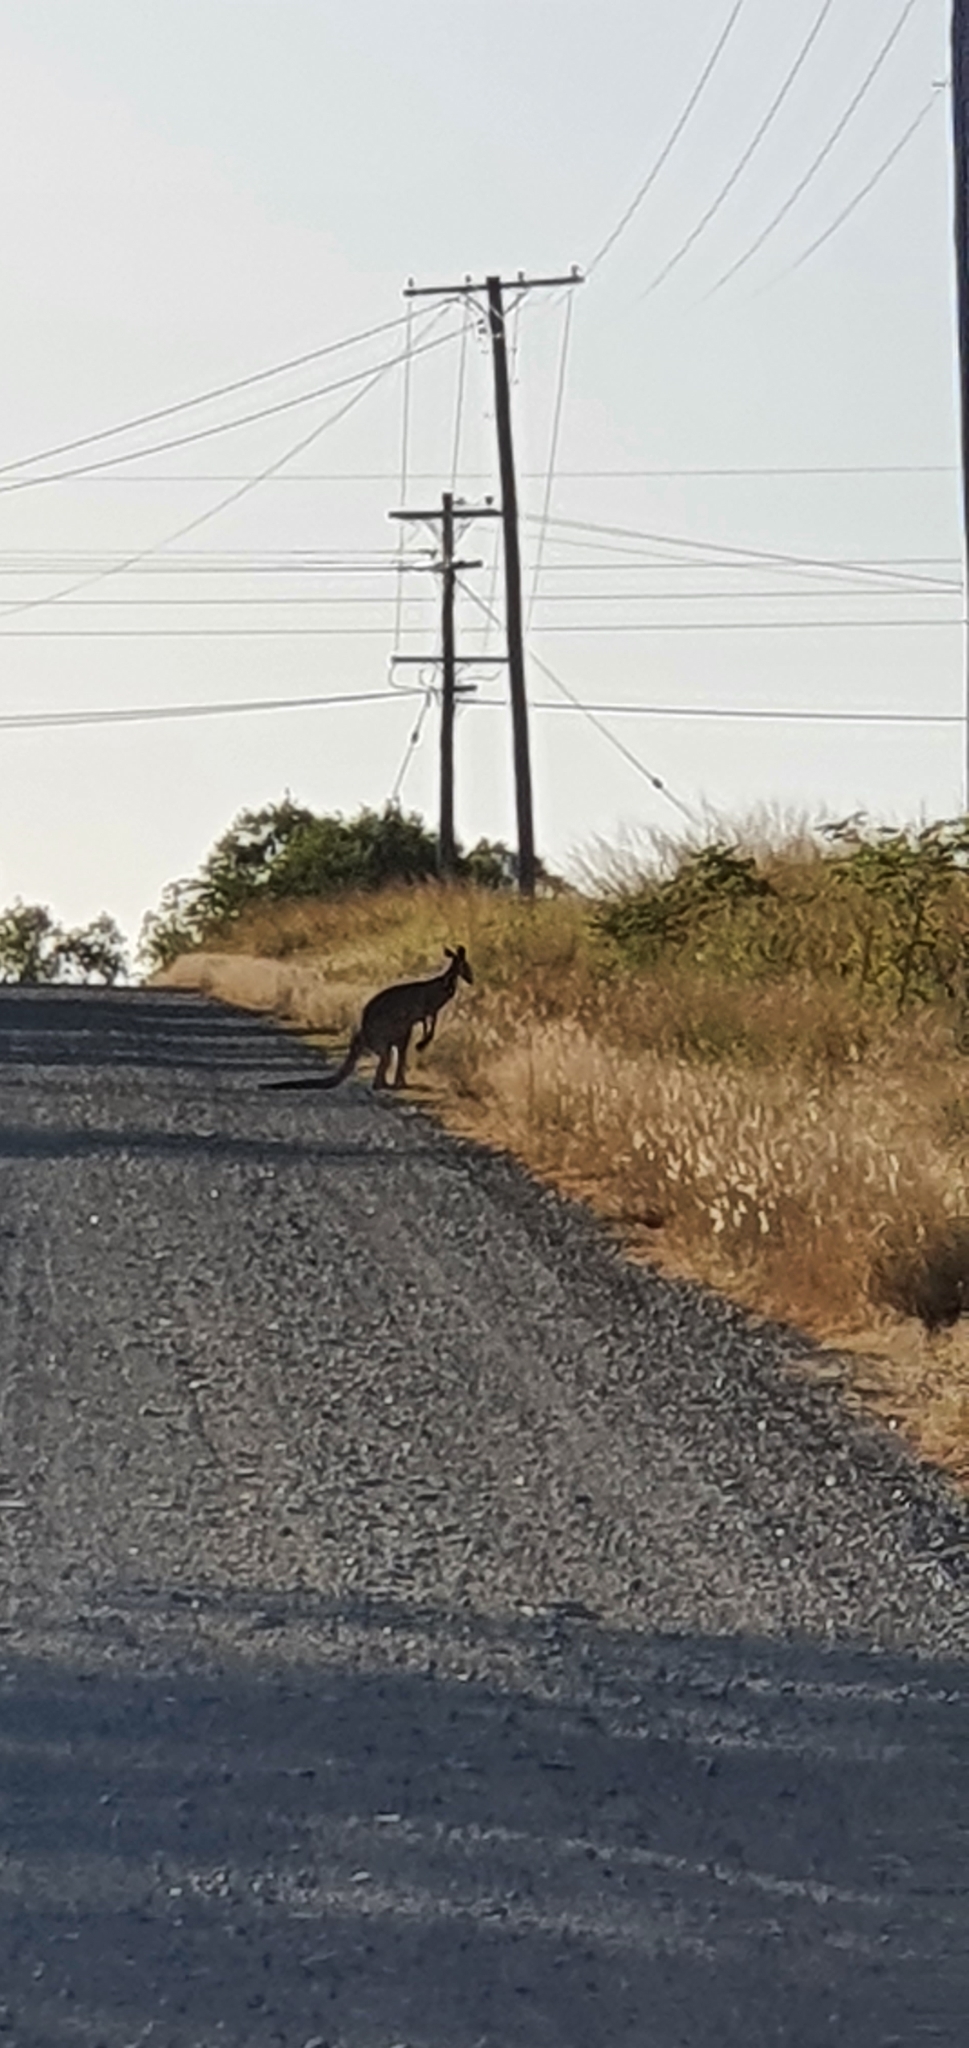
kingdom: Animalia
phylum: Chordata
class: Mammalia
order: Diprotodontia
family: Macropodidae
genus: Macropus
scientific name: Macropus giganteus
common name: Eastern grey kangaroo
